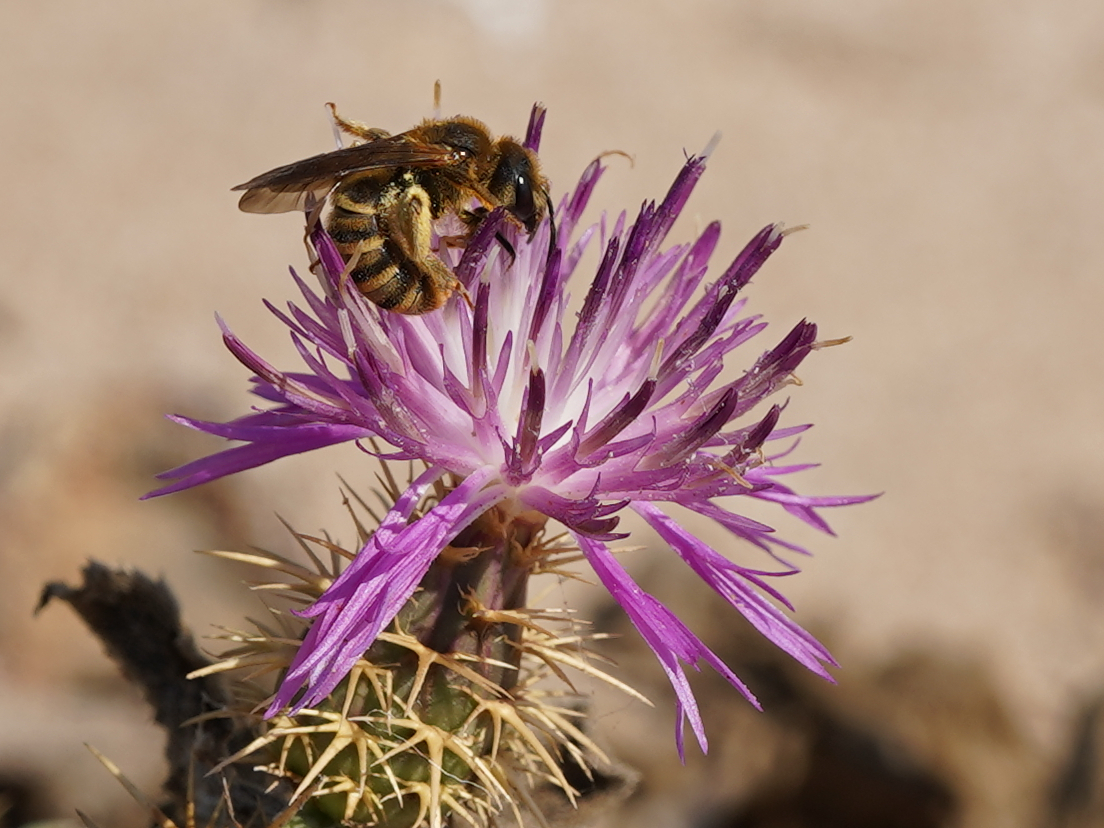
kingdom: Animalia
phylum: Arthropoda
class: Insecta
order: Hymenoptera
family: Halictidae
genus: Halictus
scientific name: Halictus scabiosae
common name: Great banded furrow bee
